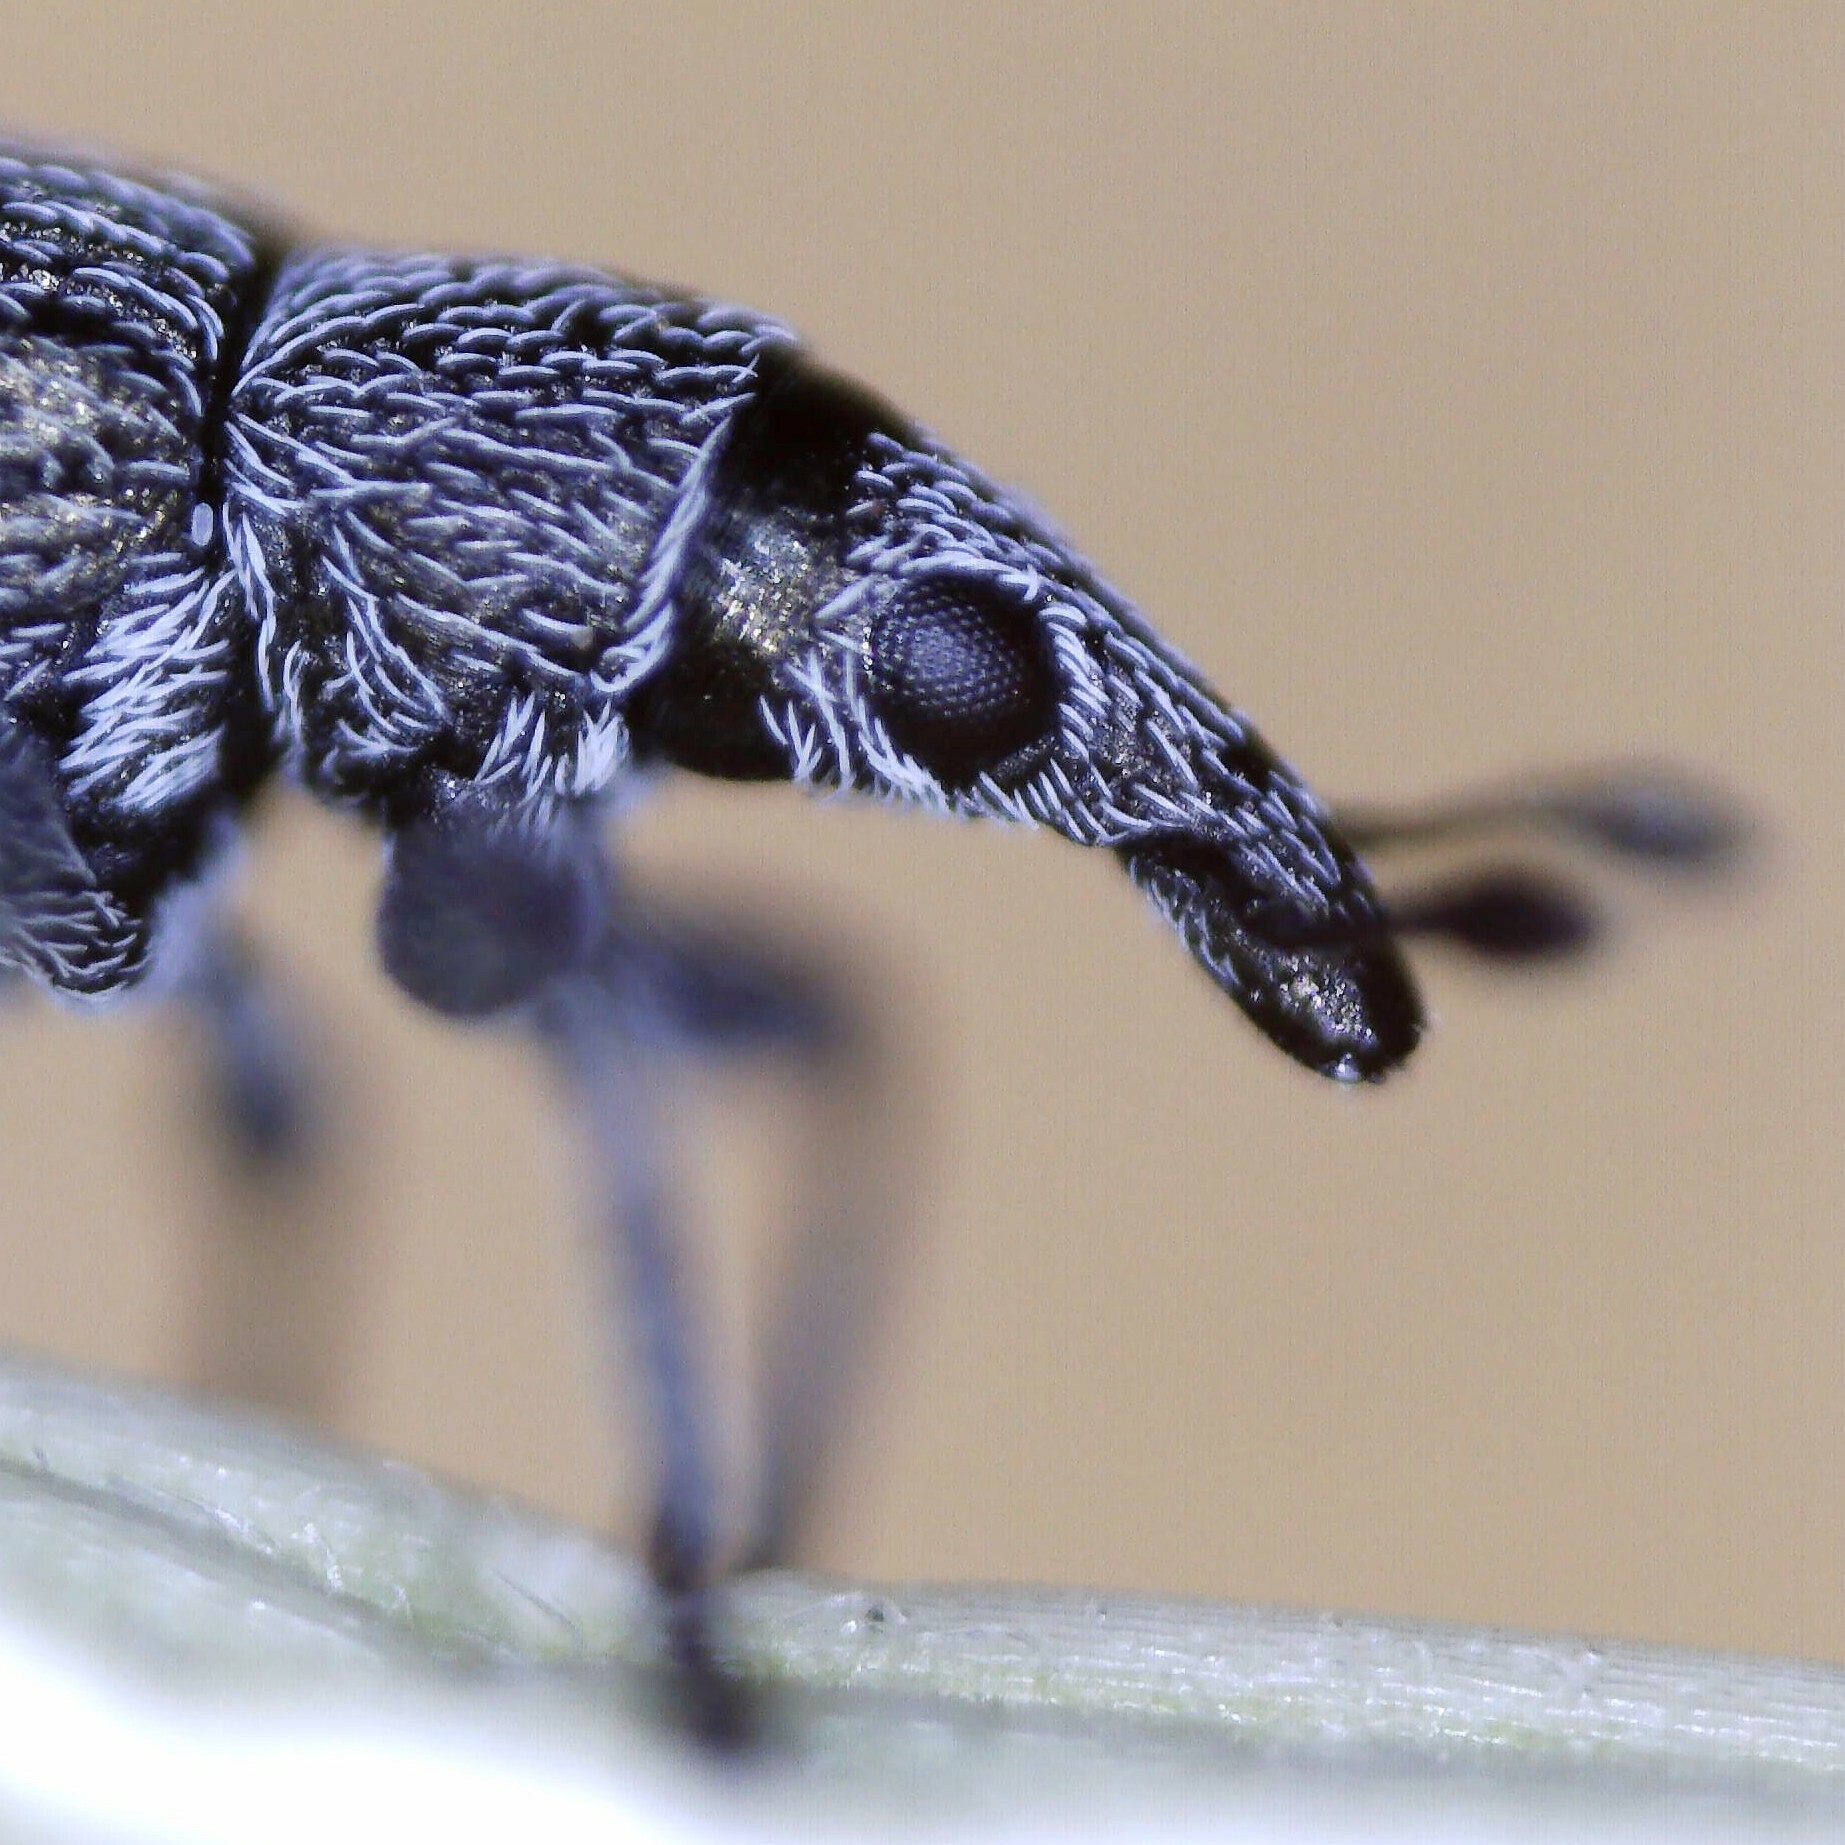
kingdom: Animalia
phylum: Arthropoda
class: Insecta
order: Coleoptera
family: Apionidae
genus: Pseudoperapion
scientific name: Pseudoperapion brevirostre
